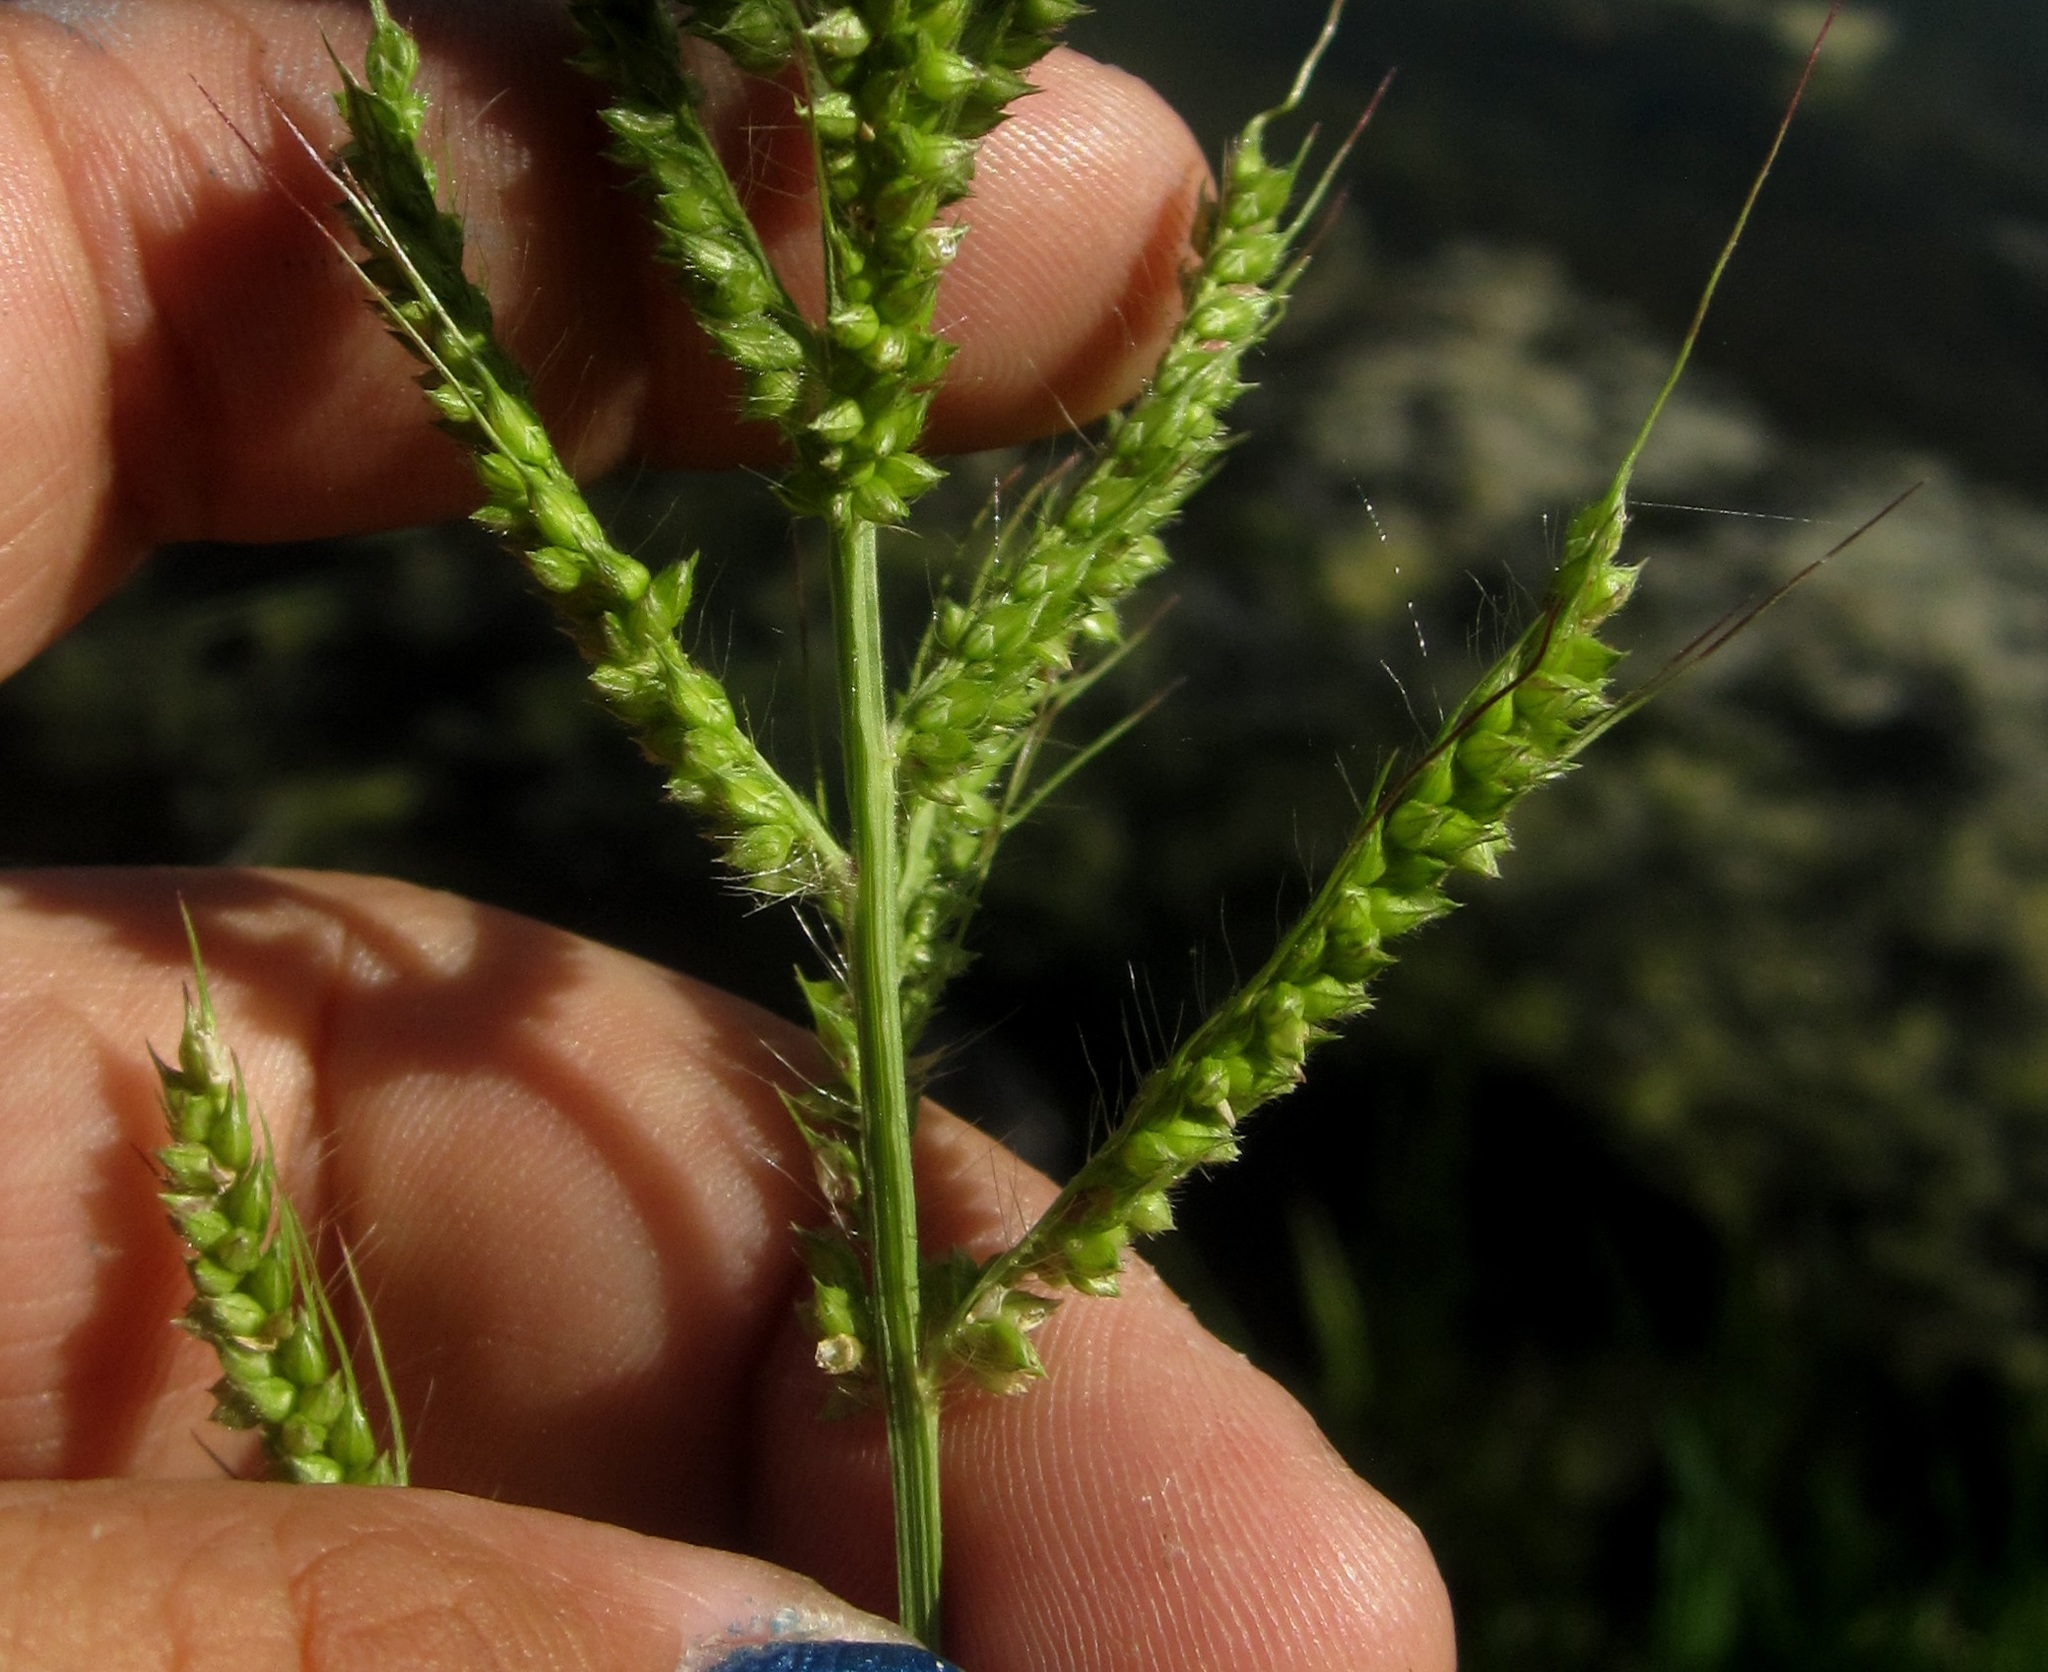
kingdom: Plantae
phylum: Tracheophyta
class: Liliopsida
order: Poales
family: Poaceae
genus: Echinochloa
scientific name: Echinochloa crus-galli
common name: Cockspur
